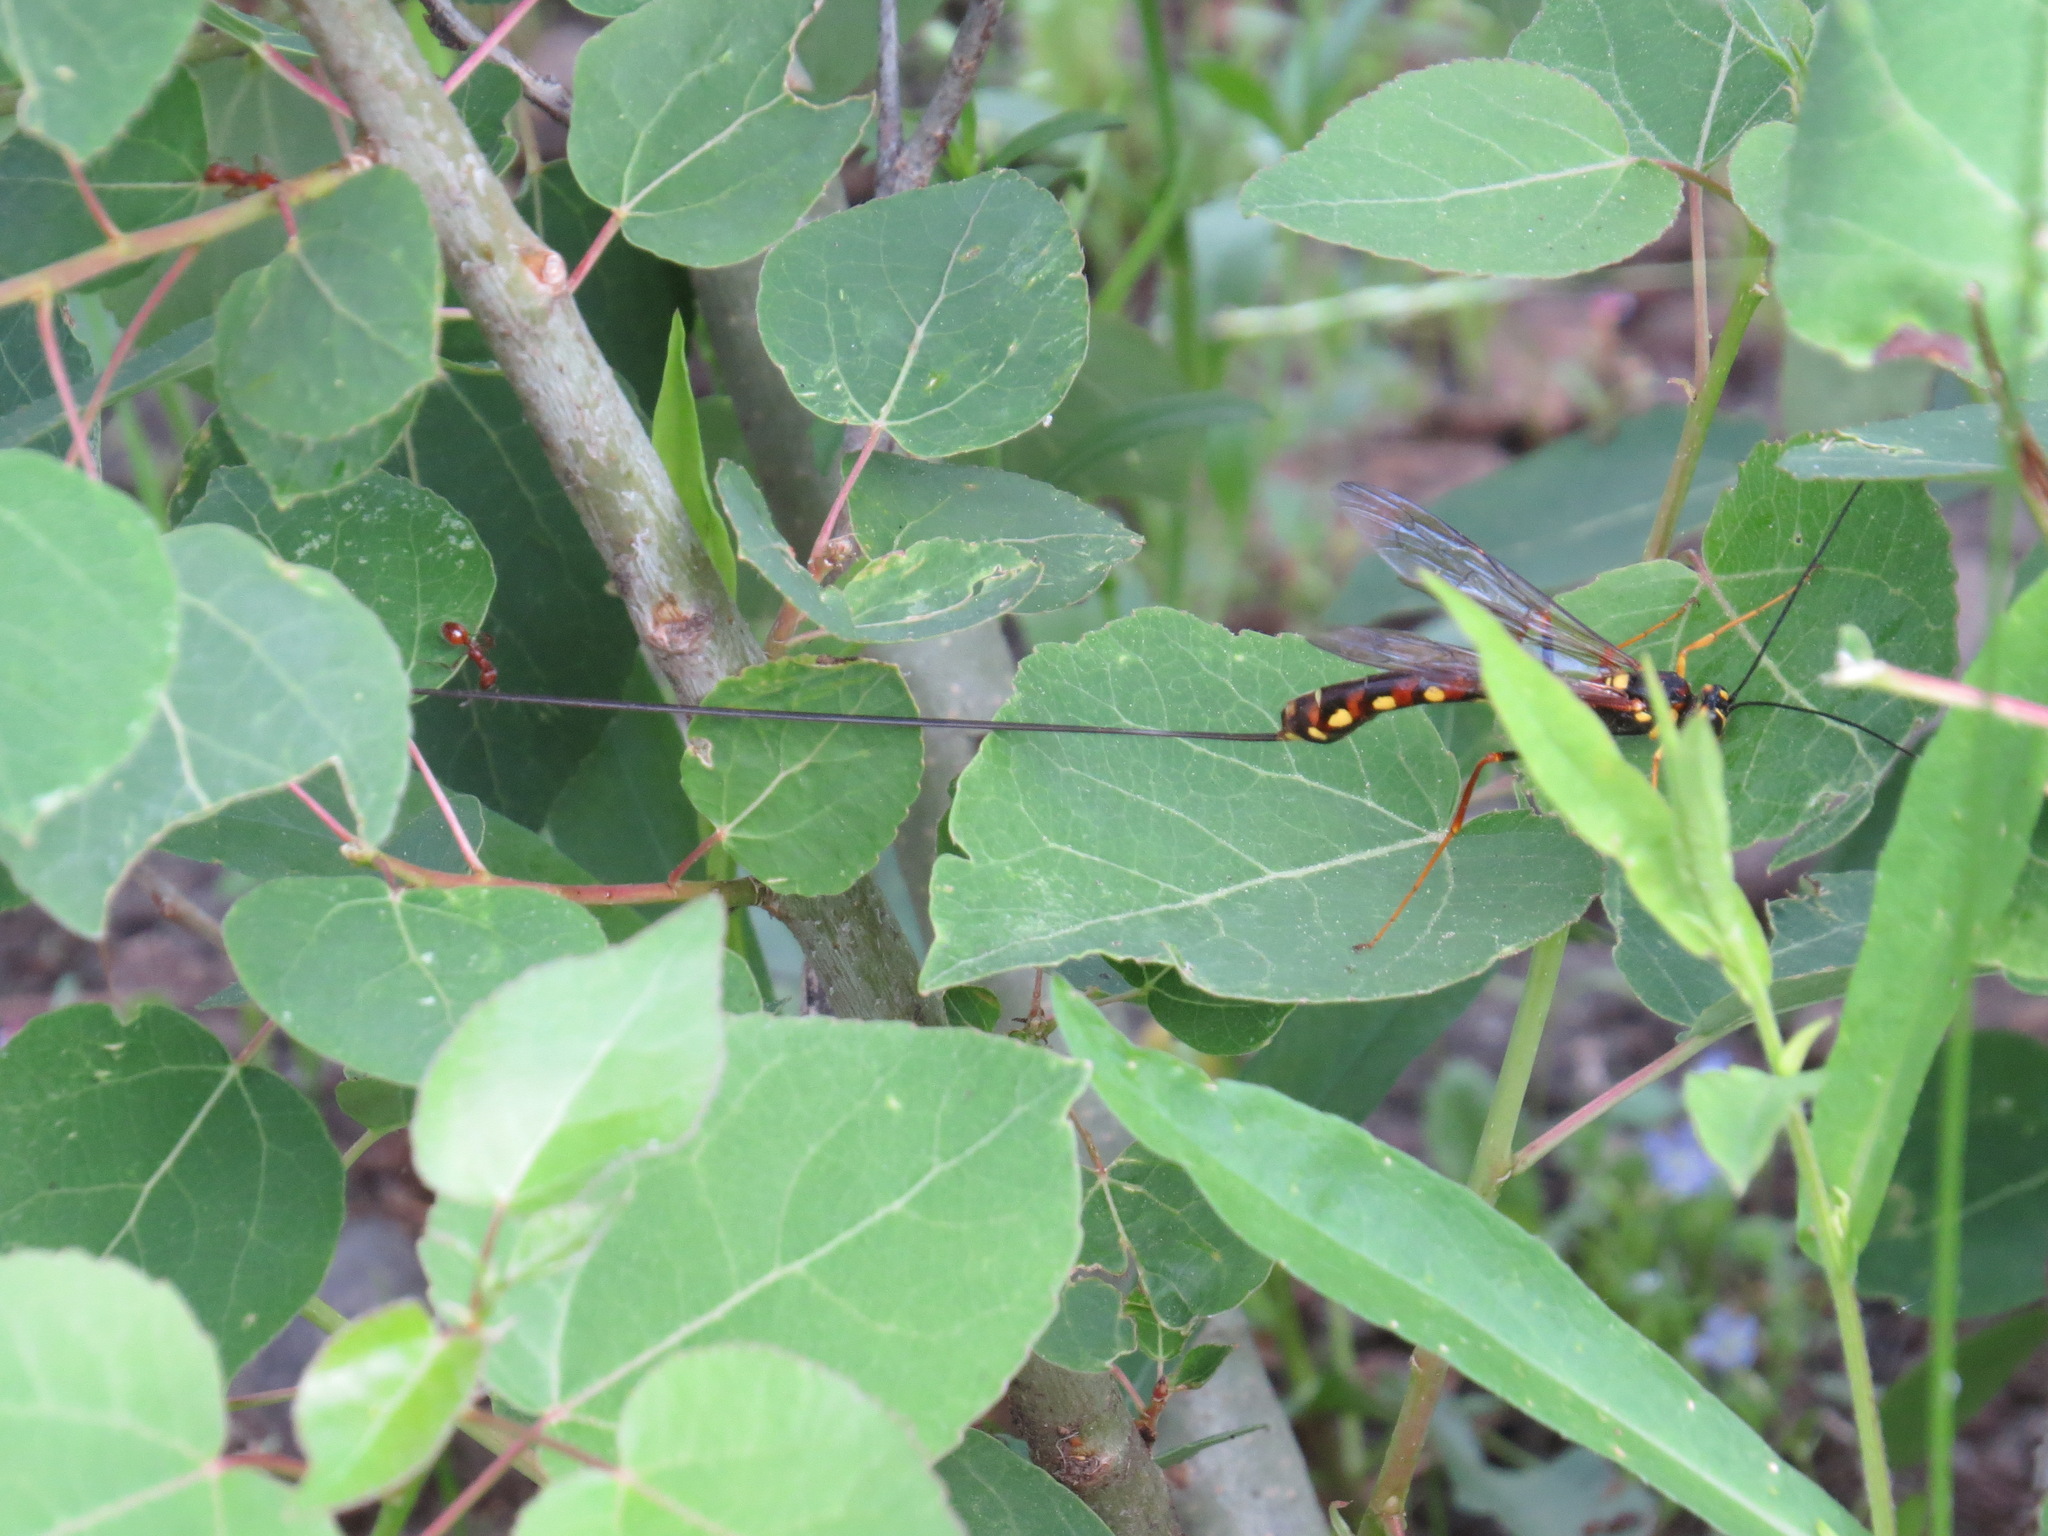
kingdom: Animalia
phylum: Arthropoda
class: Insecta
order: Hymenoptera
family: Ichneumonidae
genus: Megarhyssa
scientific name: Megarhyssa nortoni
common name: Norton's giant ichneumonid wasp
